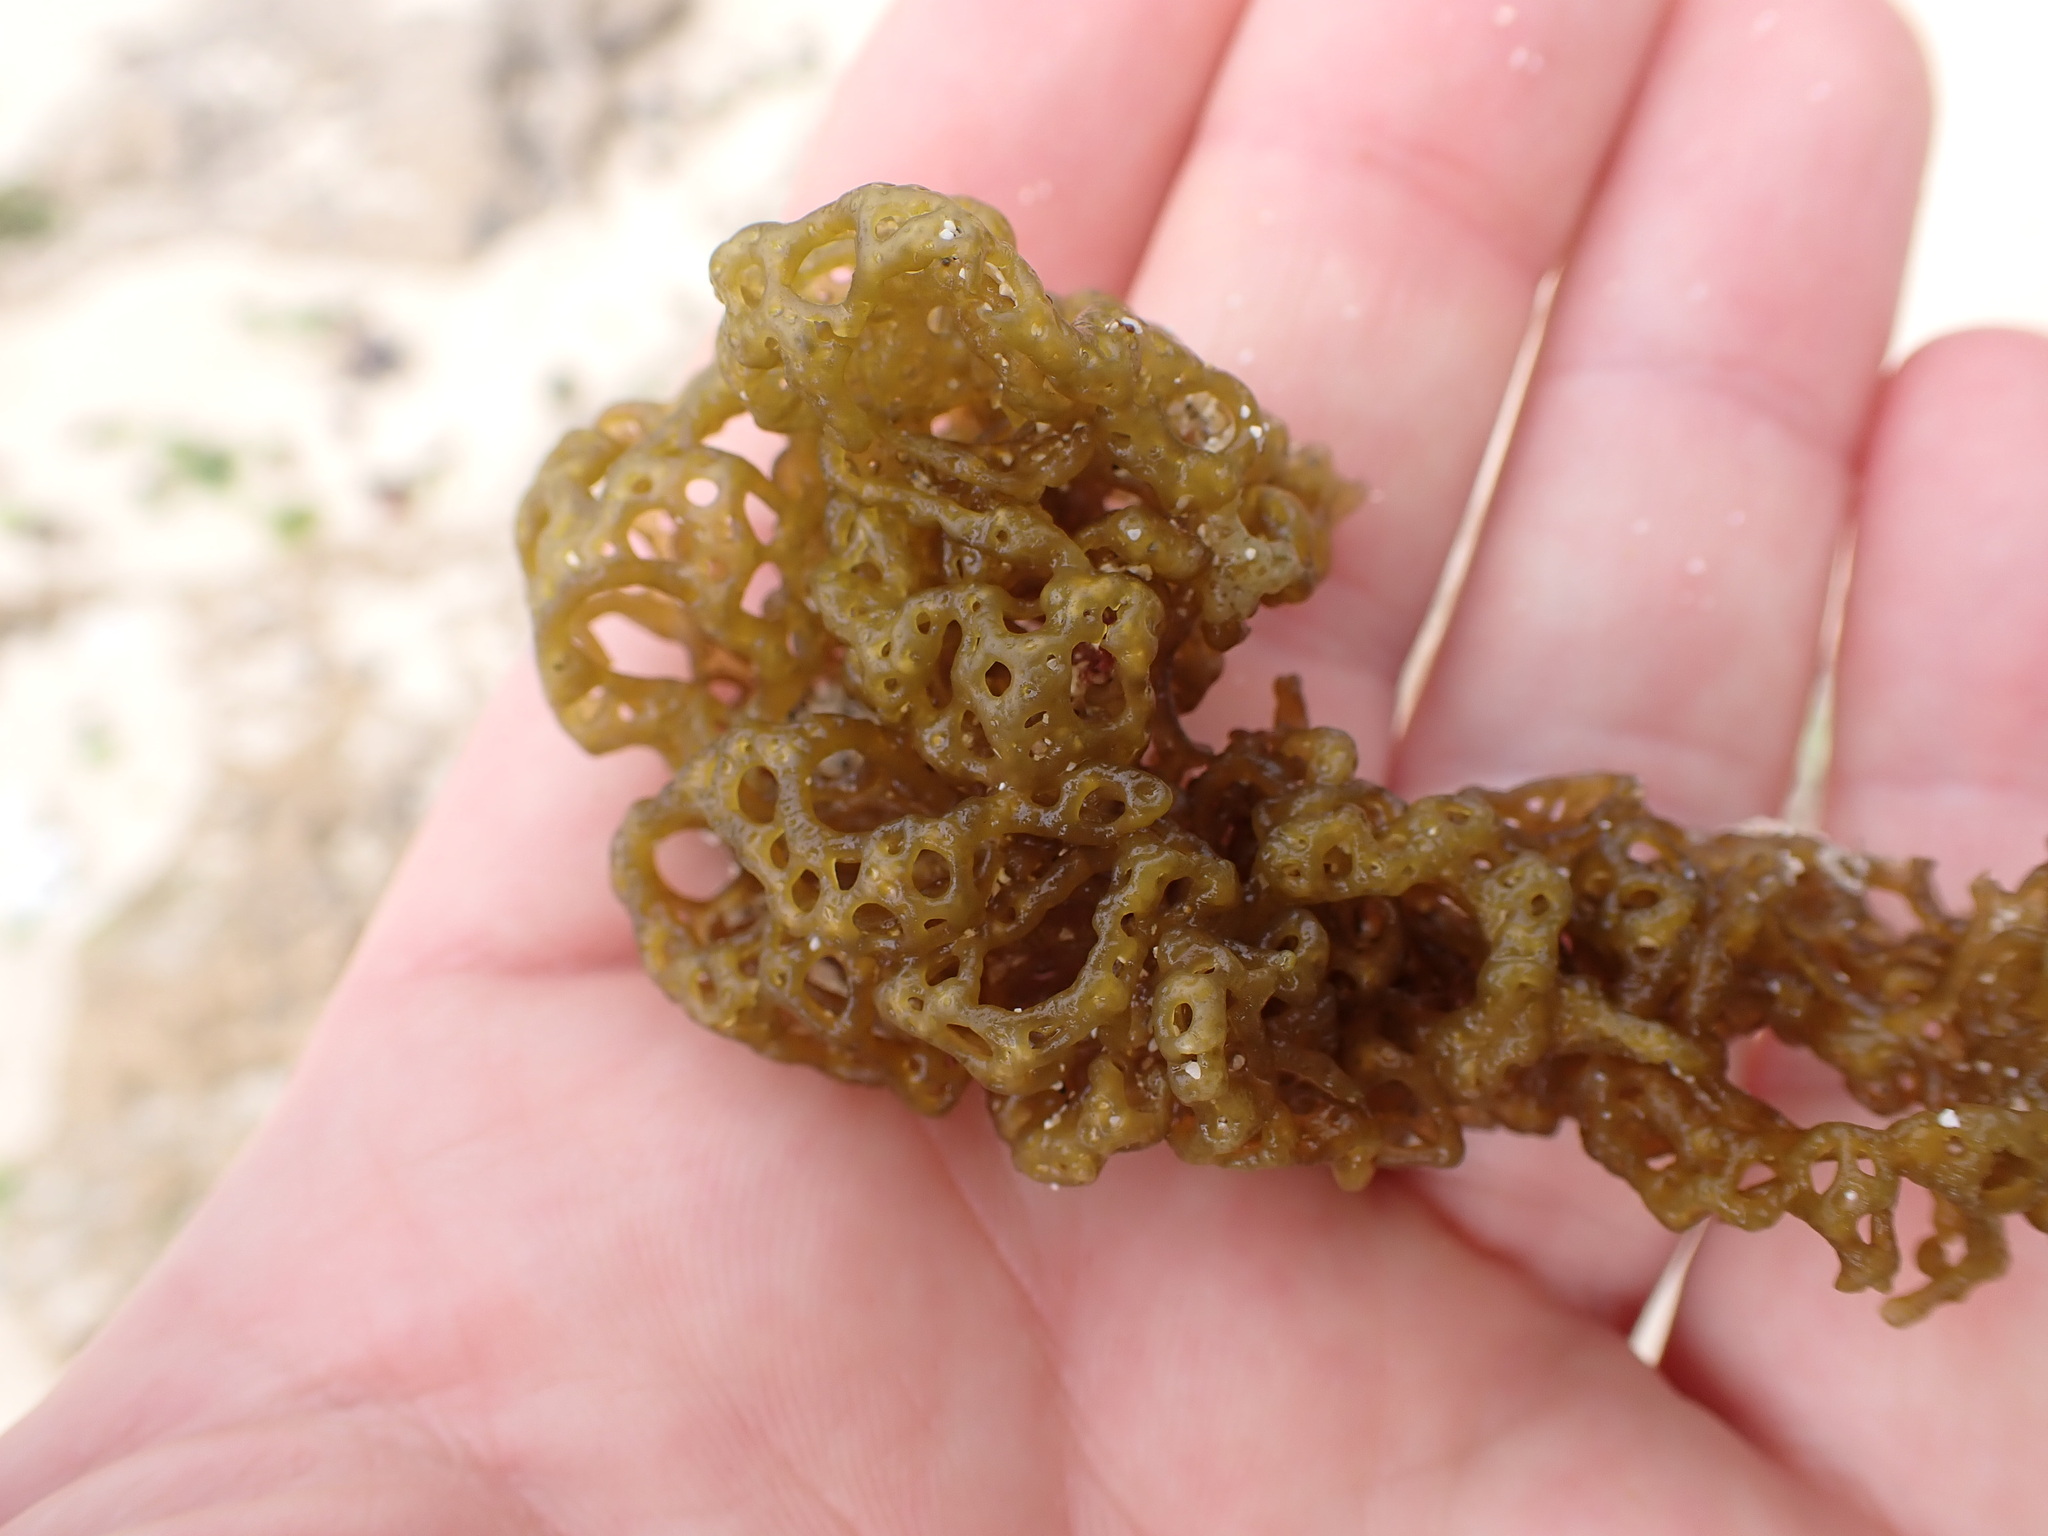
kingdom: Chromista
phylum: Ochrophyta
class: Phaeophyceae
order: Scytosiphonales
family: Scytosiphonaceae
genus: Hydroclathrus
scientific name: Hydroclathrus clathratus
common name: Swiss cheese algae
